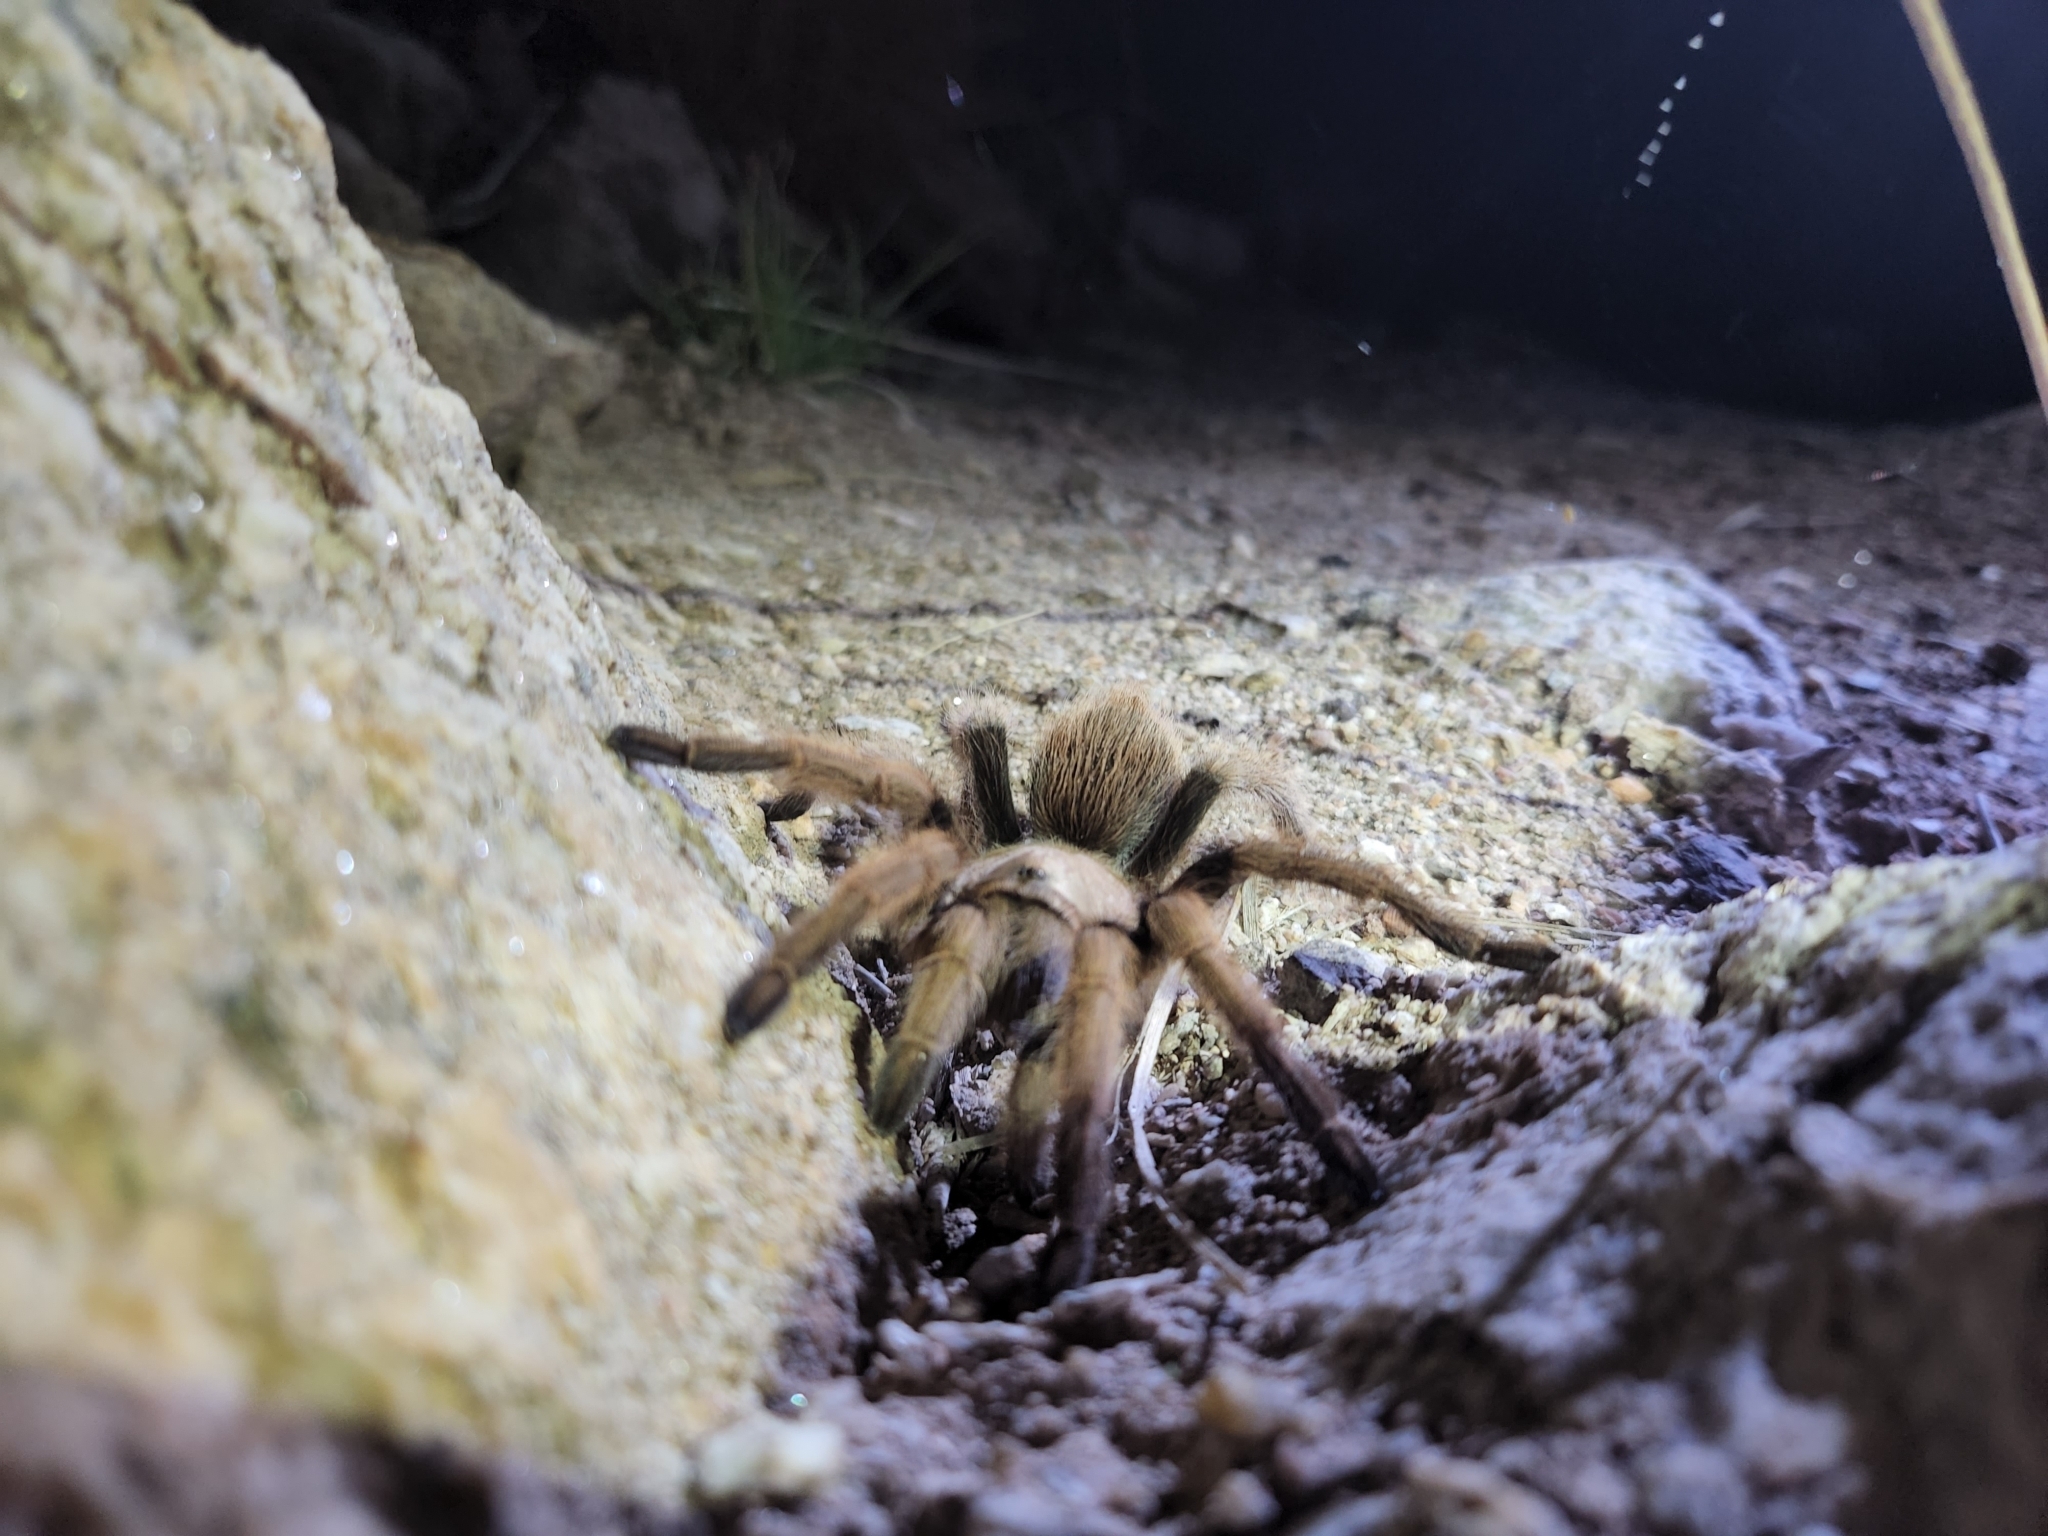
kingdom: Animalia
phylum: Arthropoda
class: Arachnida
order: Araneae
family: Theraphosidae
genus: Aphonopelma
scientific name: Aphonopelma chalcodes
